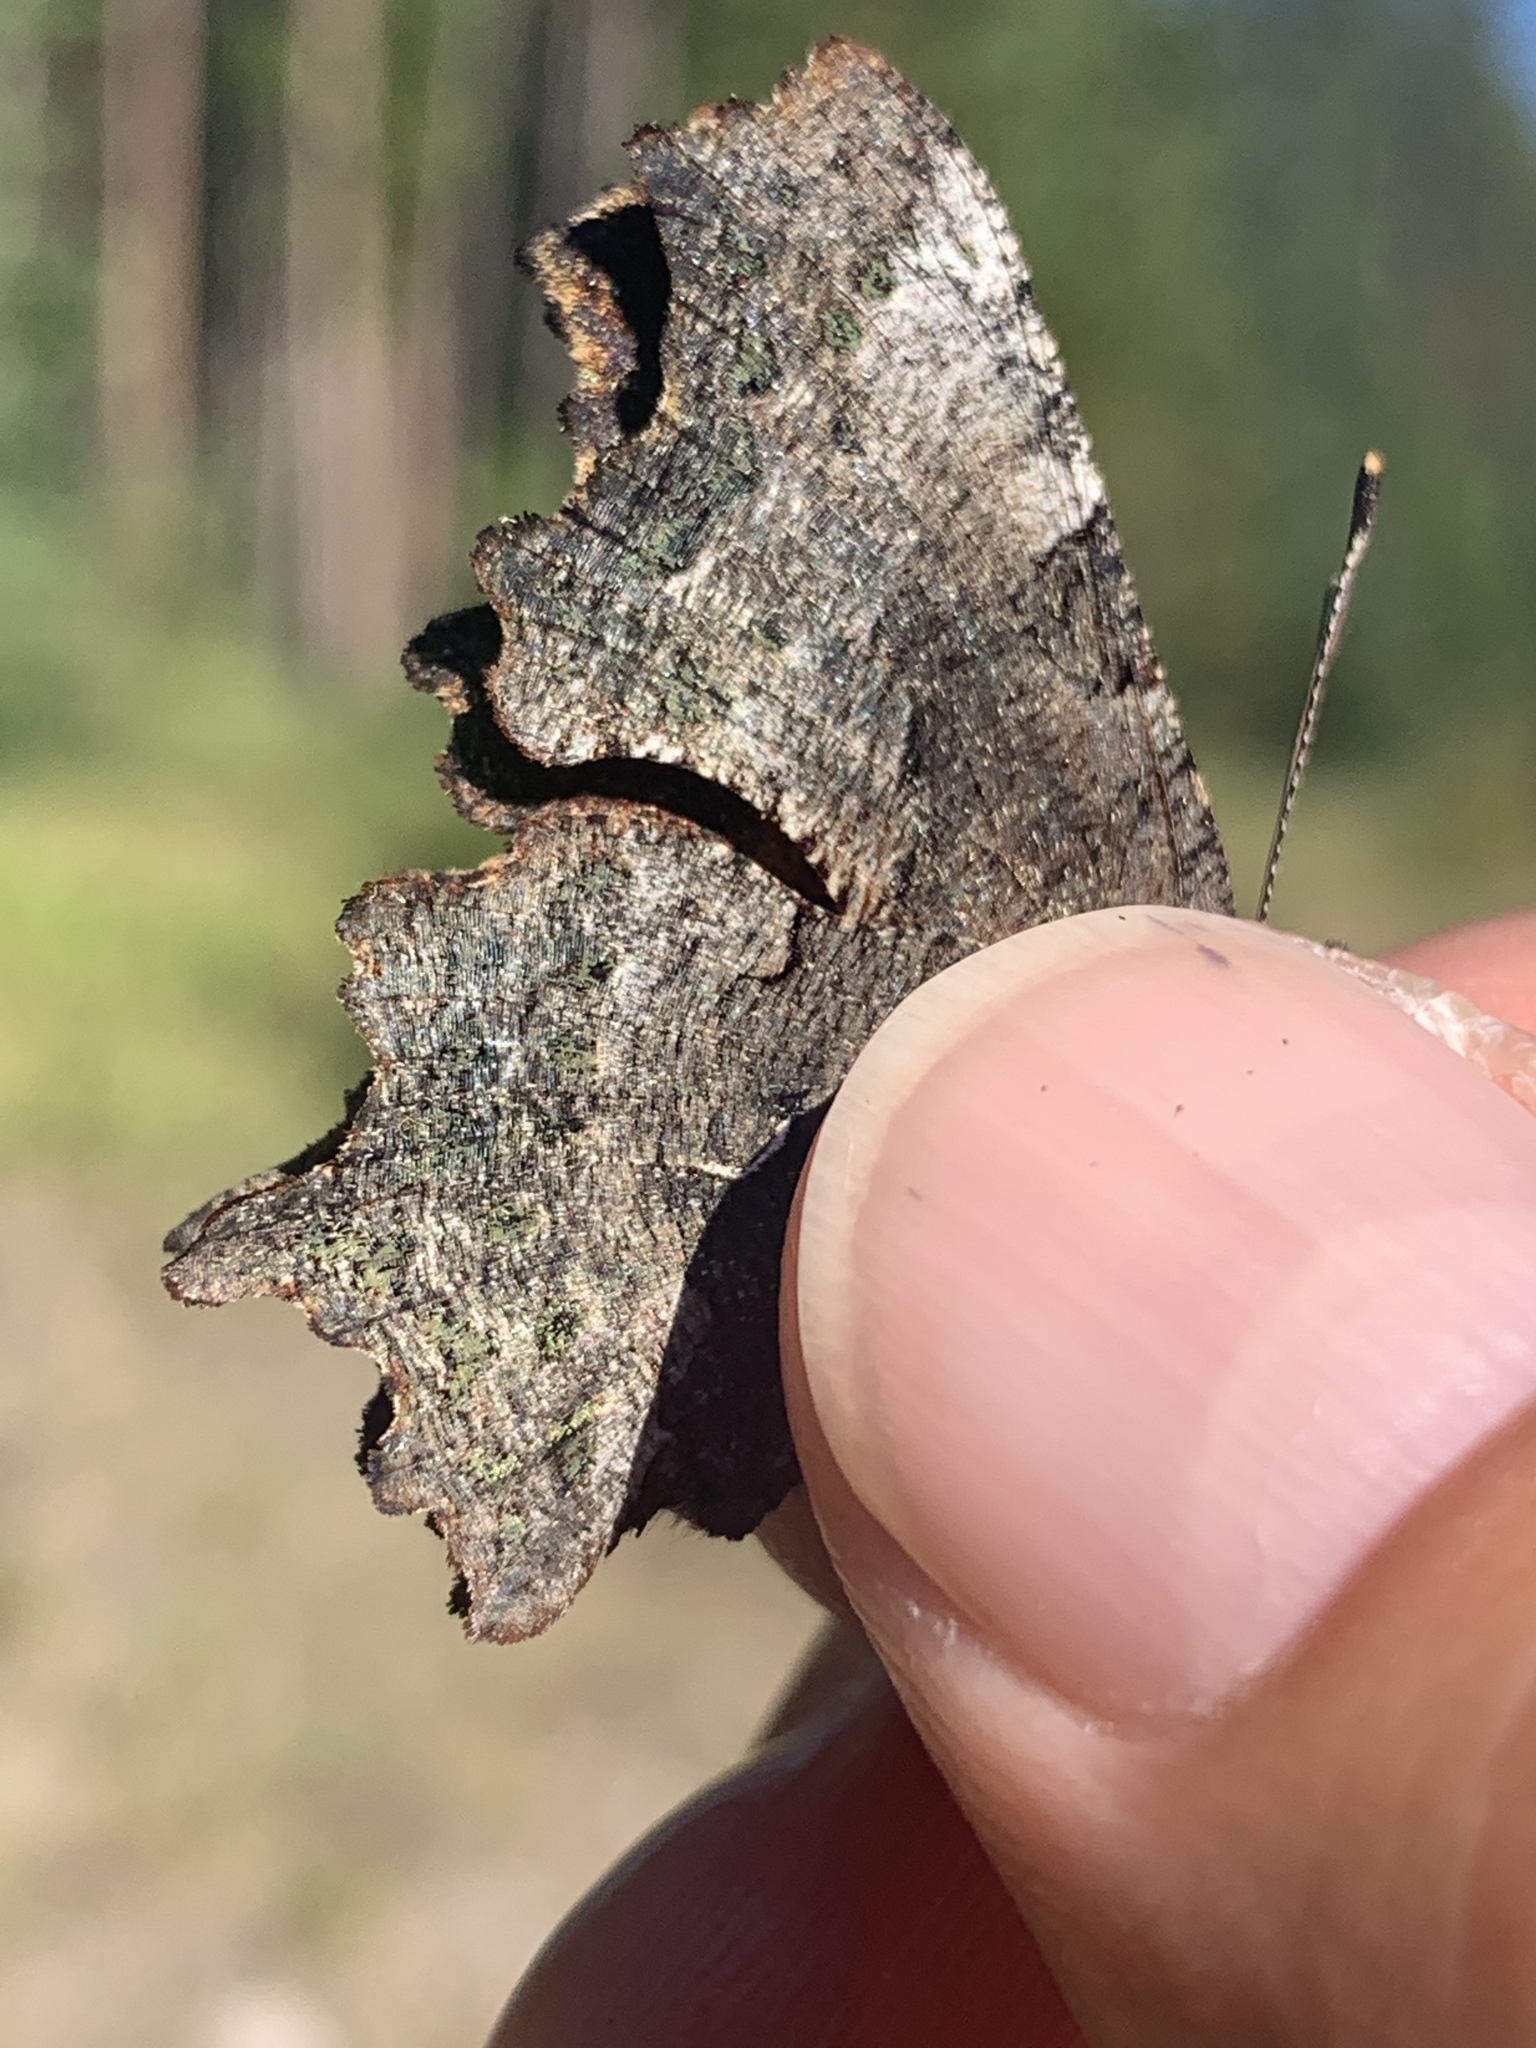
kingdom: Animalia
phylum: Arthropoda
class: Insecta
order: Lepidoptera
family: Nymphalidae
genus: Polygonia
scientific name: Polygonia faunus
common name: Green comma
